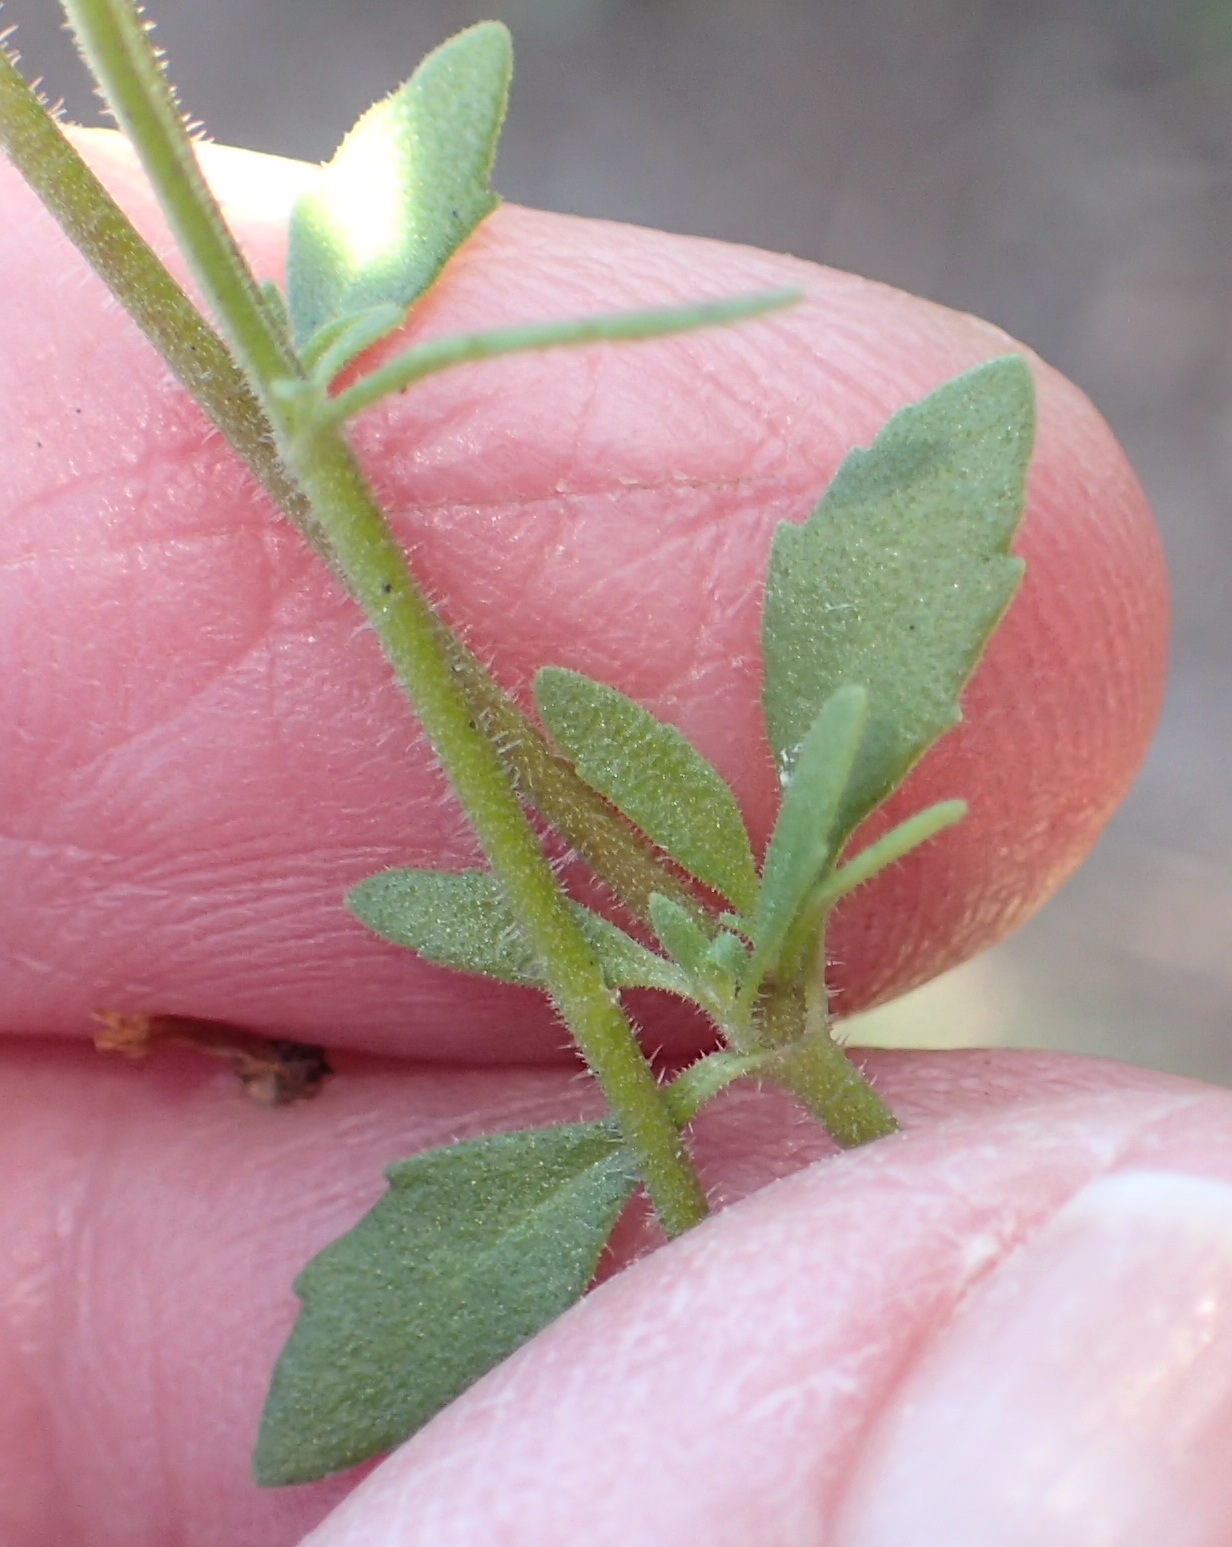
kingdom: Plantae
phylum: Tracheophyta
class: Magnoliopsida
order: Lamiales
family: Scrophulariaceae
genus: Chaenostoma
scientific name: Chaenostoma polyanthum
